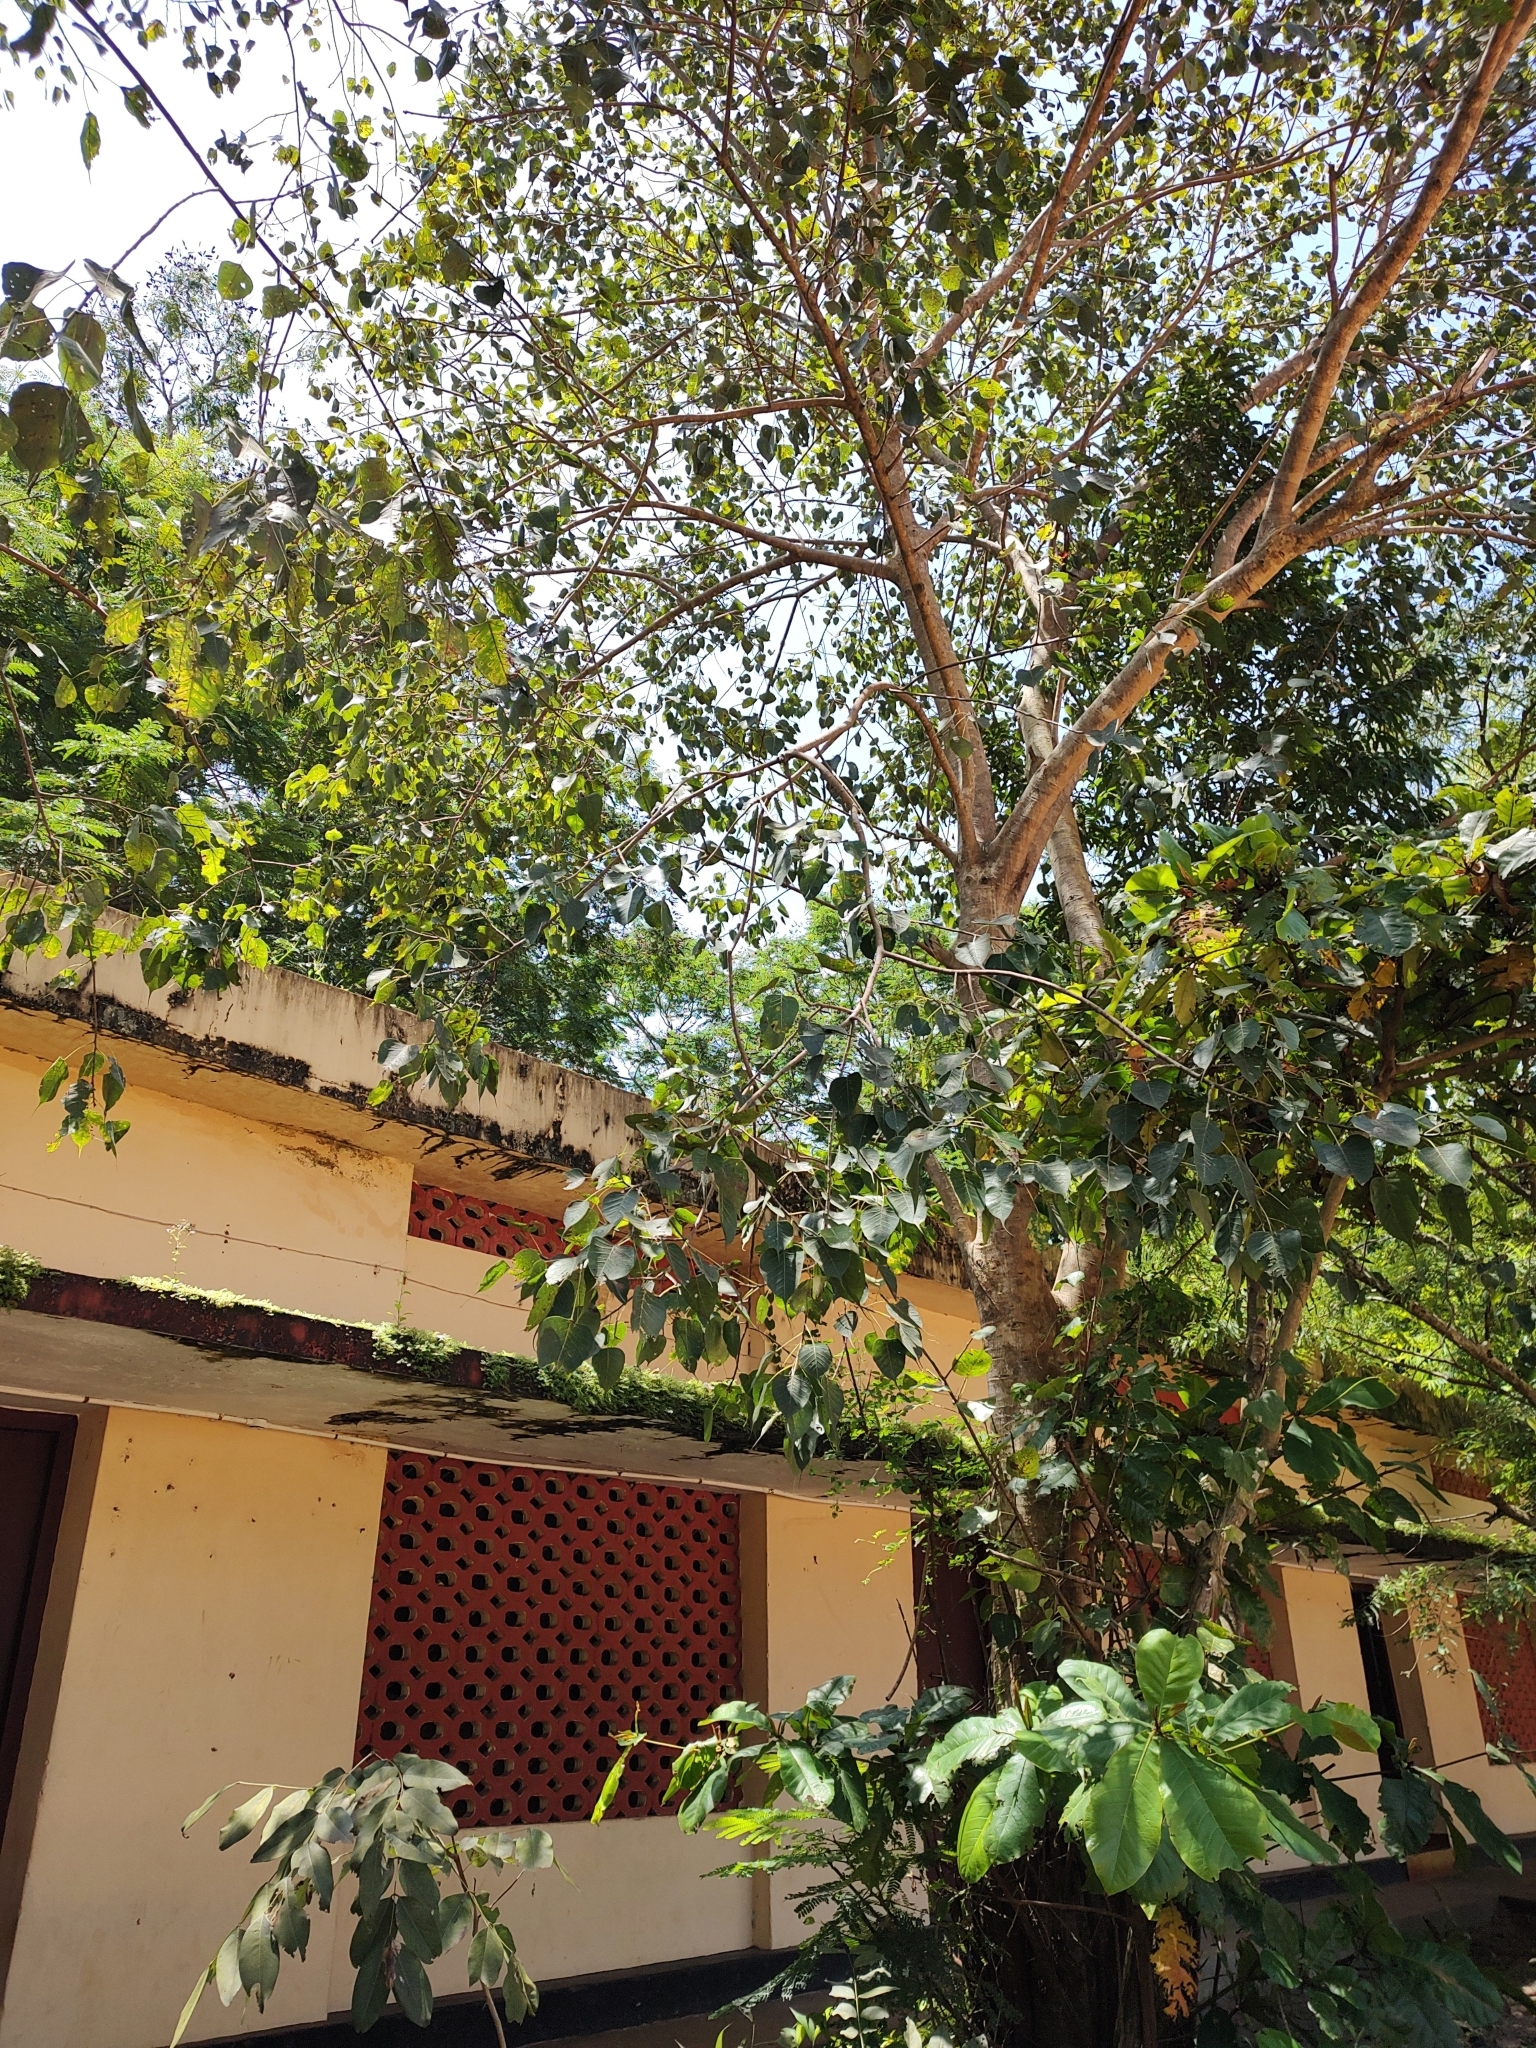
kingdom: Plantae
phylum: Tracheophyta
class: Magnoliopsida
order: Rosales
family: Moraceae
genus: Ficus
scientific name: Ficus religiosa
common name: Bodhi tree
